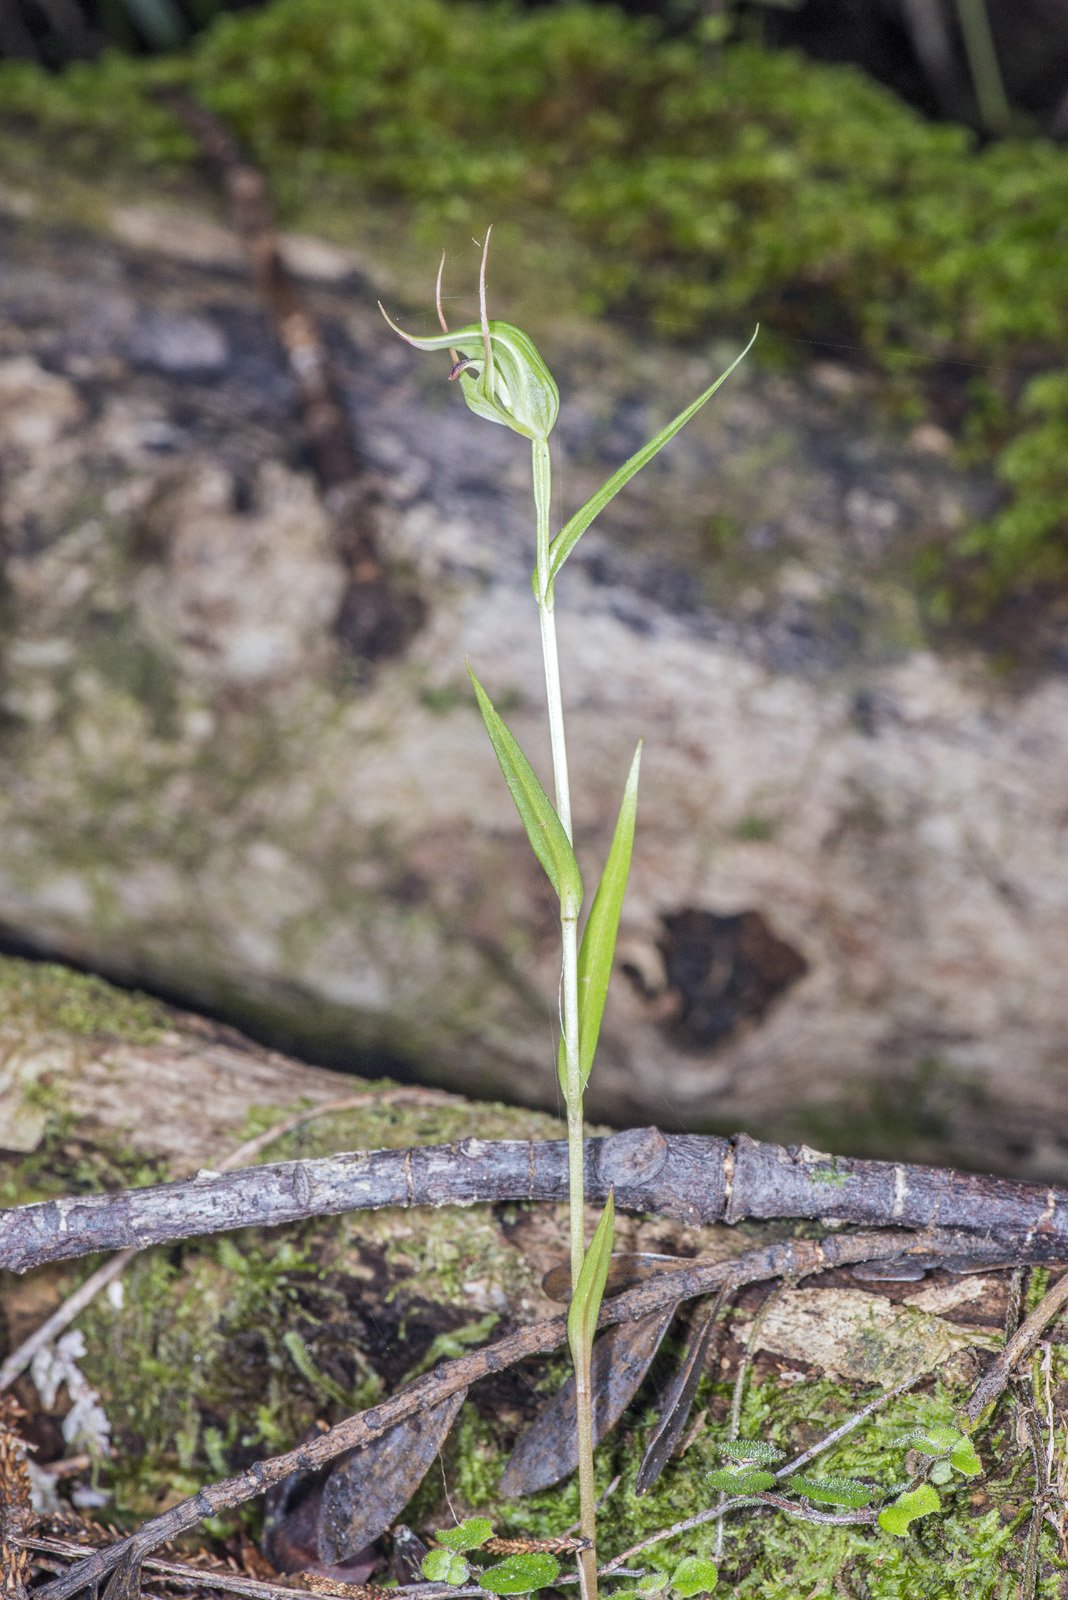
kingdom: Plantae
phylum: Tracheophyta
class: Liliopsida
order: Asparagales
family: Orchidaceae
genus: Pterostylis
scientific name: Pterostylis agathicola
